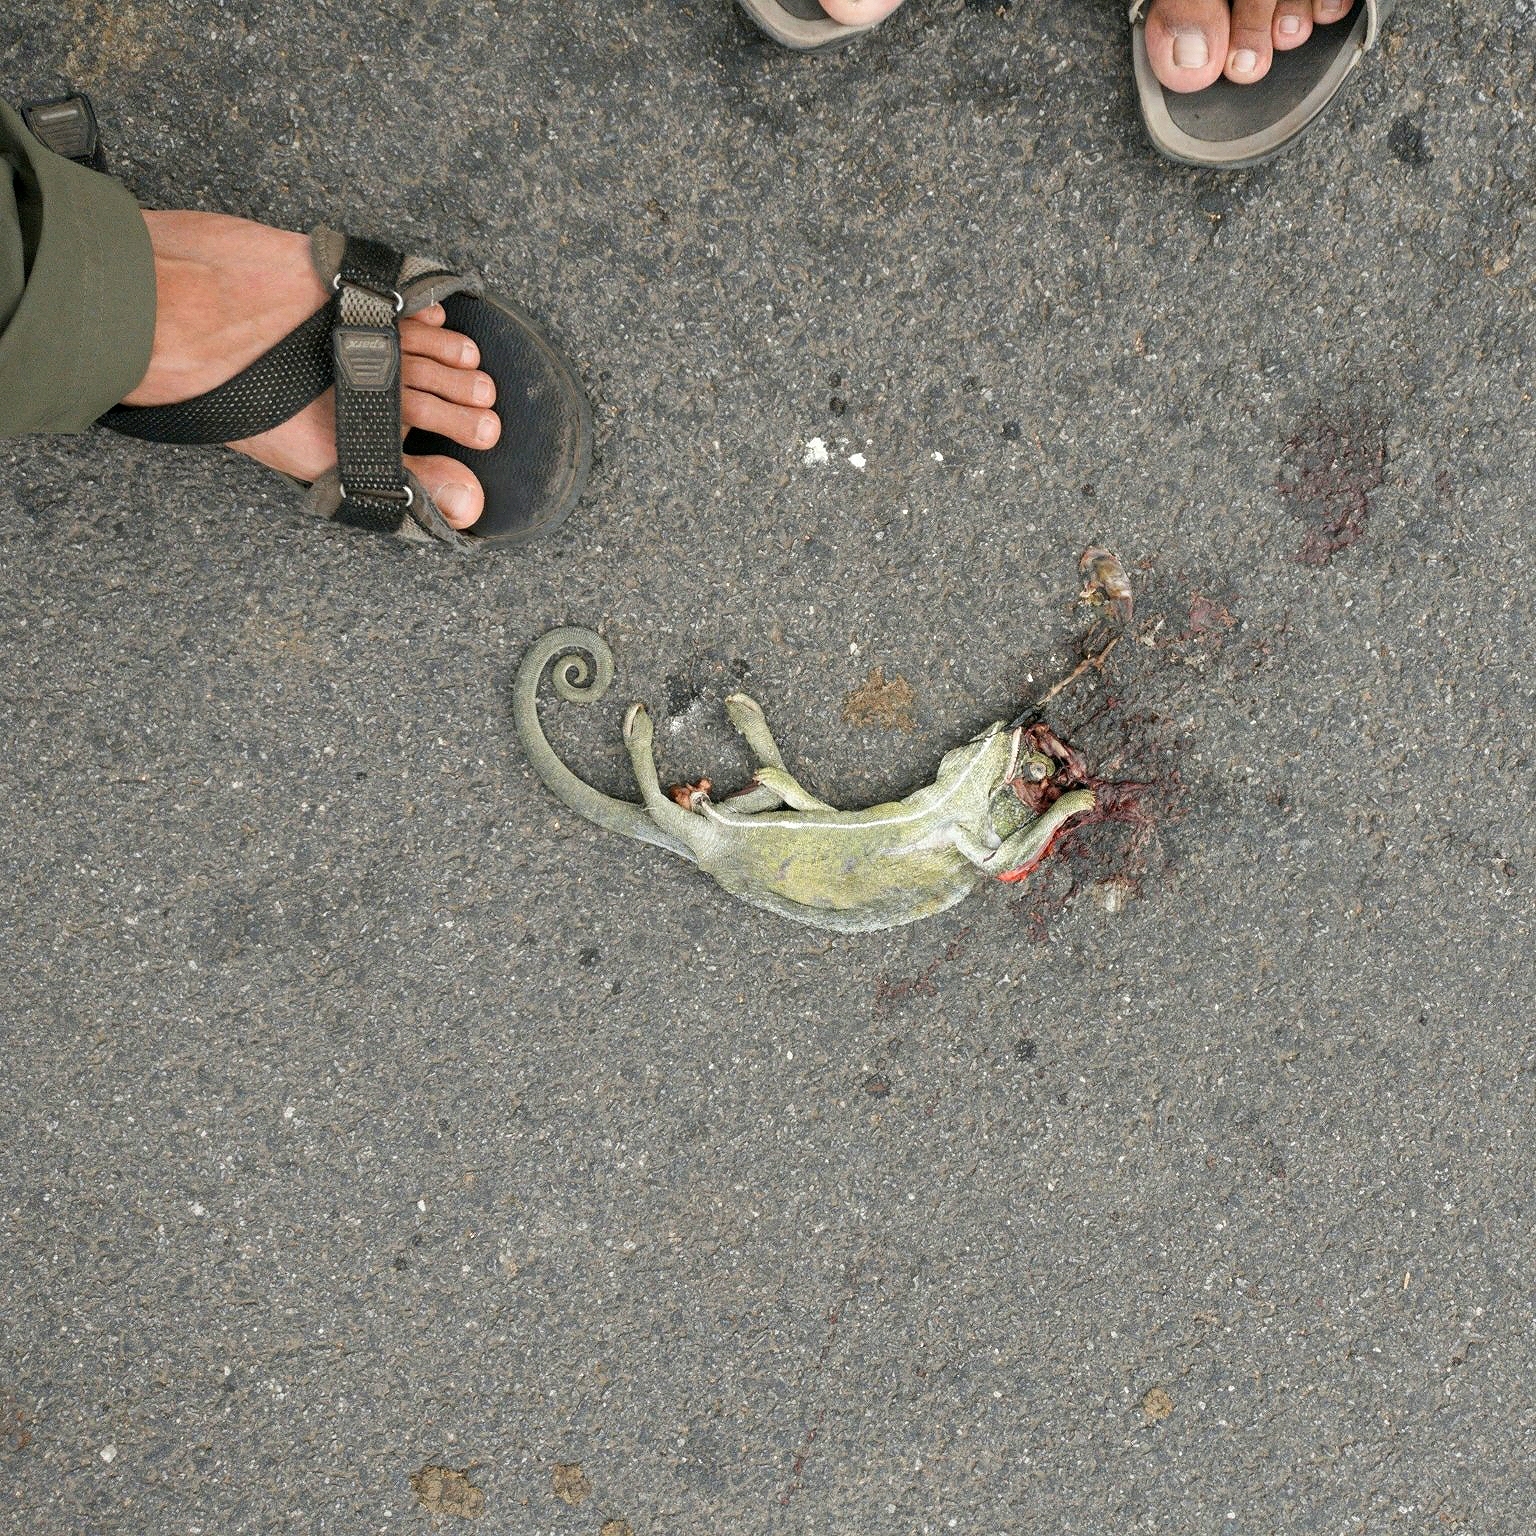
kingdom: Animalia
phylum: Chordata
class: Squamata
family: Chamaeleonidae
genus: Chamaeleo
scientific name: Chamaeleo zeylanicus
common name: Indian chameleon
